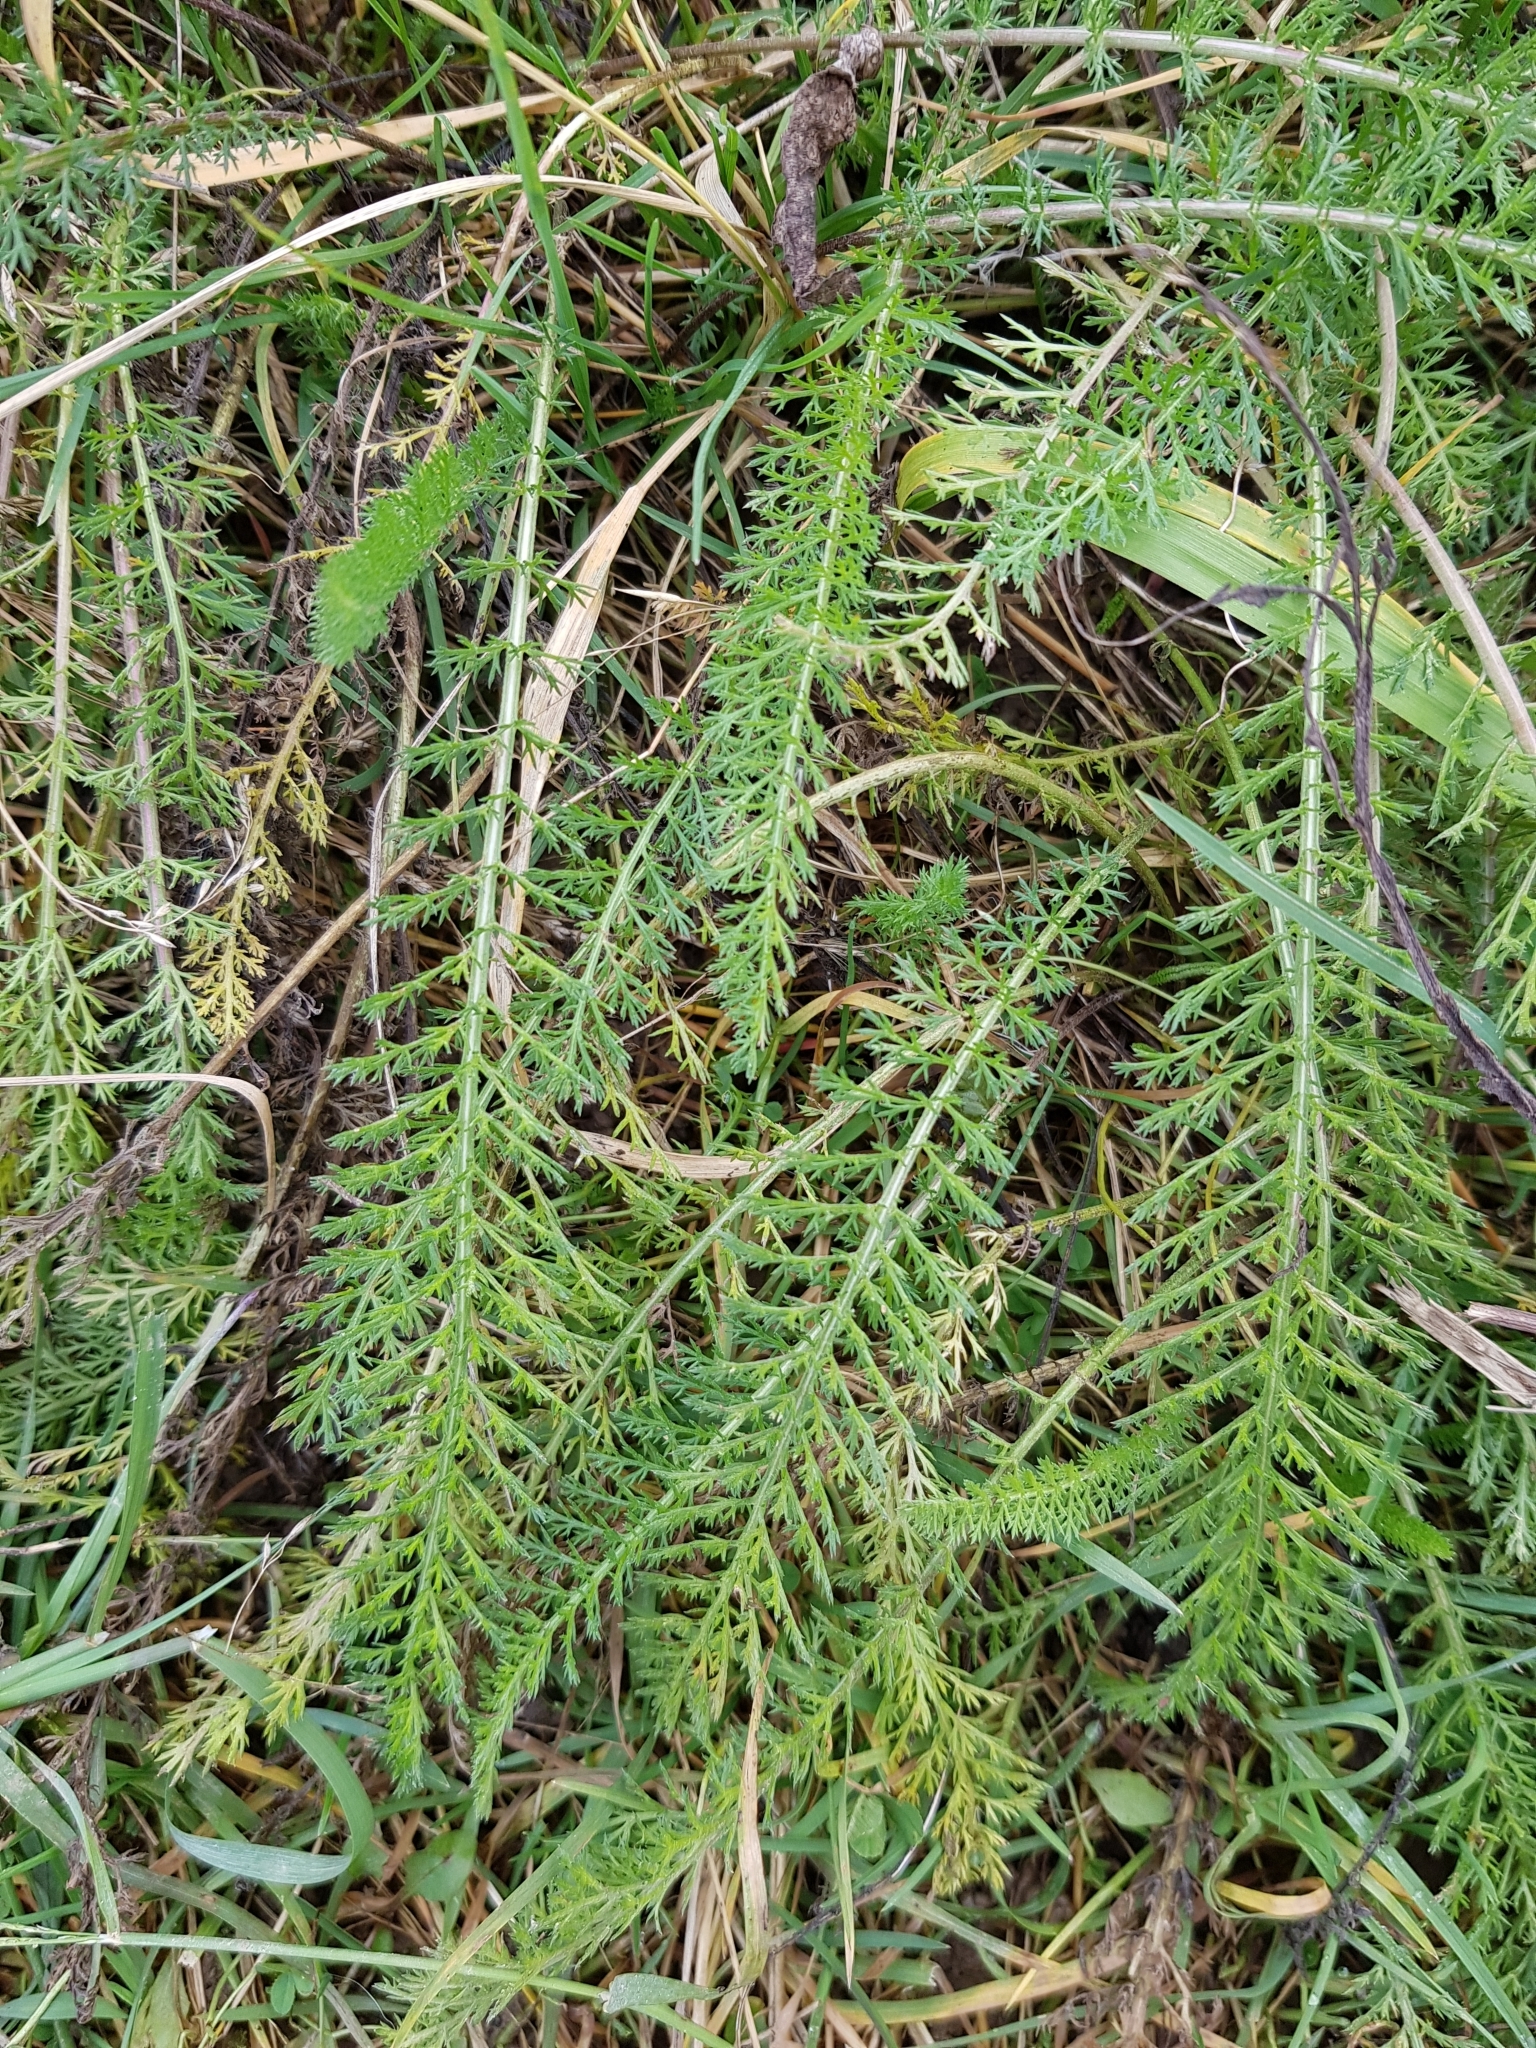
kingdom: Plantae
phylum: Tracheophyta
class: Magnoliopsida
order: Asterales
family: Asteraceae
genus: Achillea
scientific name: Achillea millefolium
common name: Yarrow
